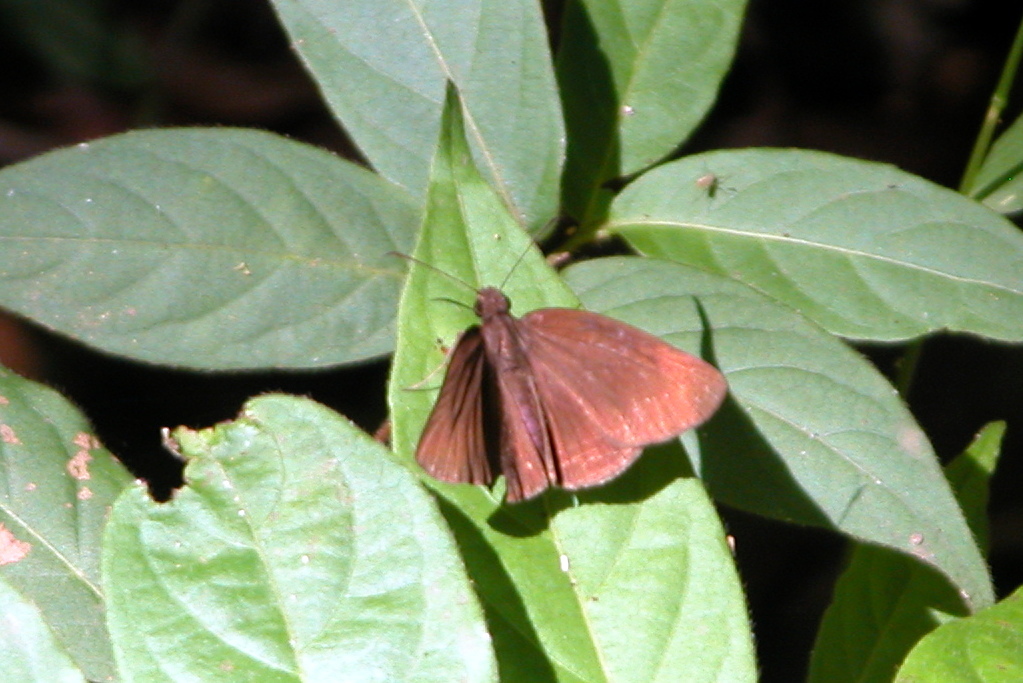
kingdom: Animalia
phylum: Arthropoda
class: Insecta
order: Lepidoptera
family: Hesperiidae
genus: Psolos
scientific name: Psolos fuligo
